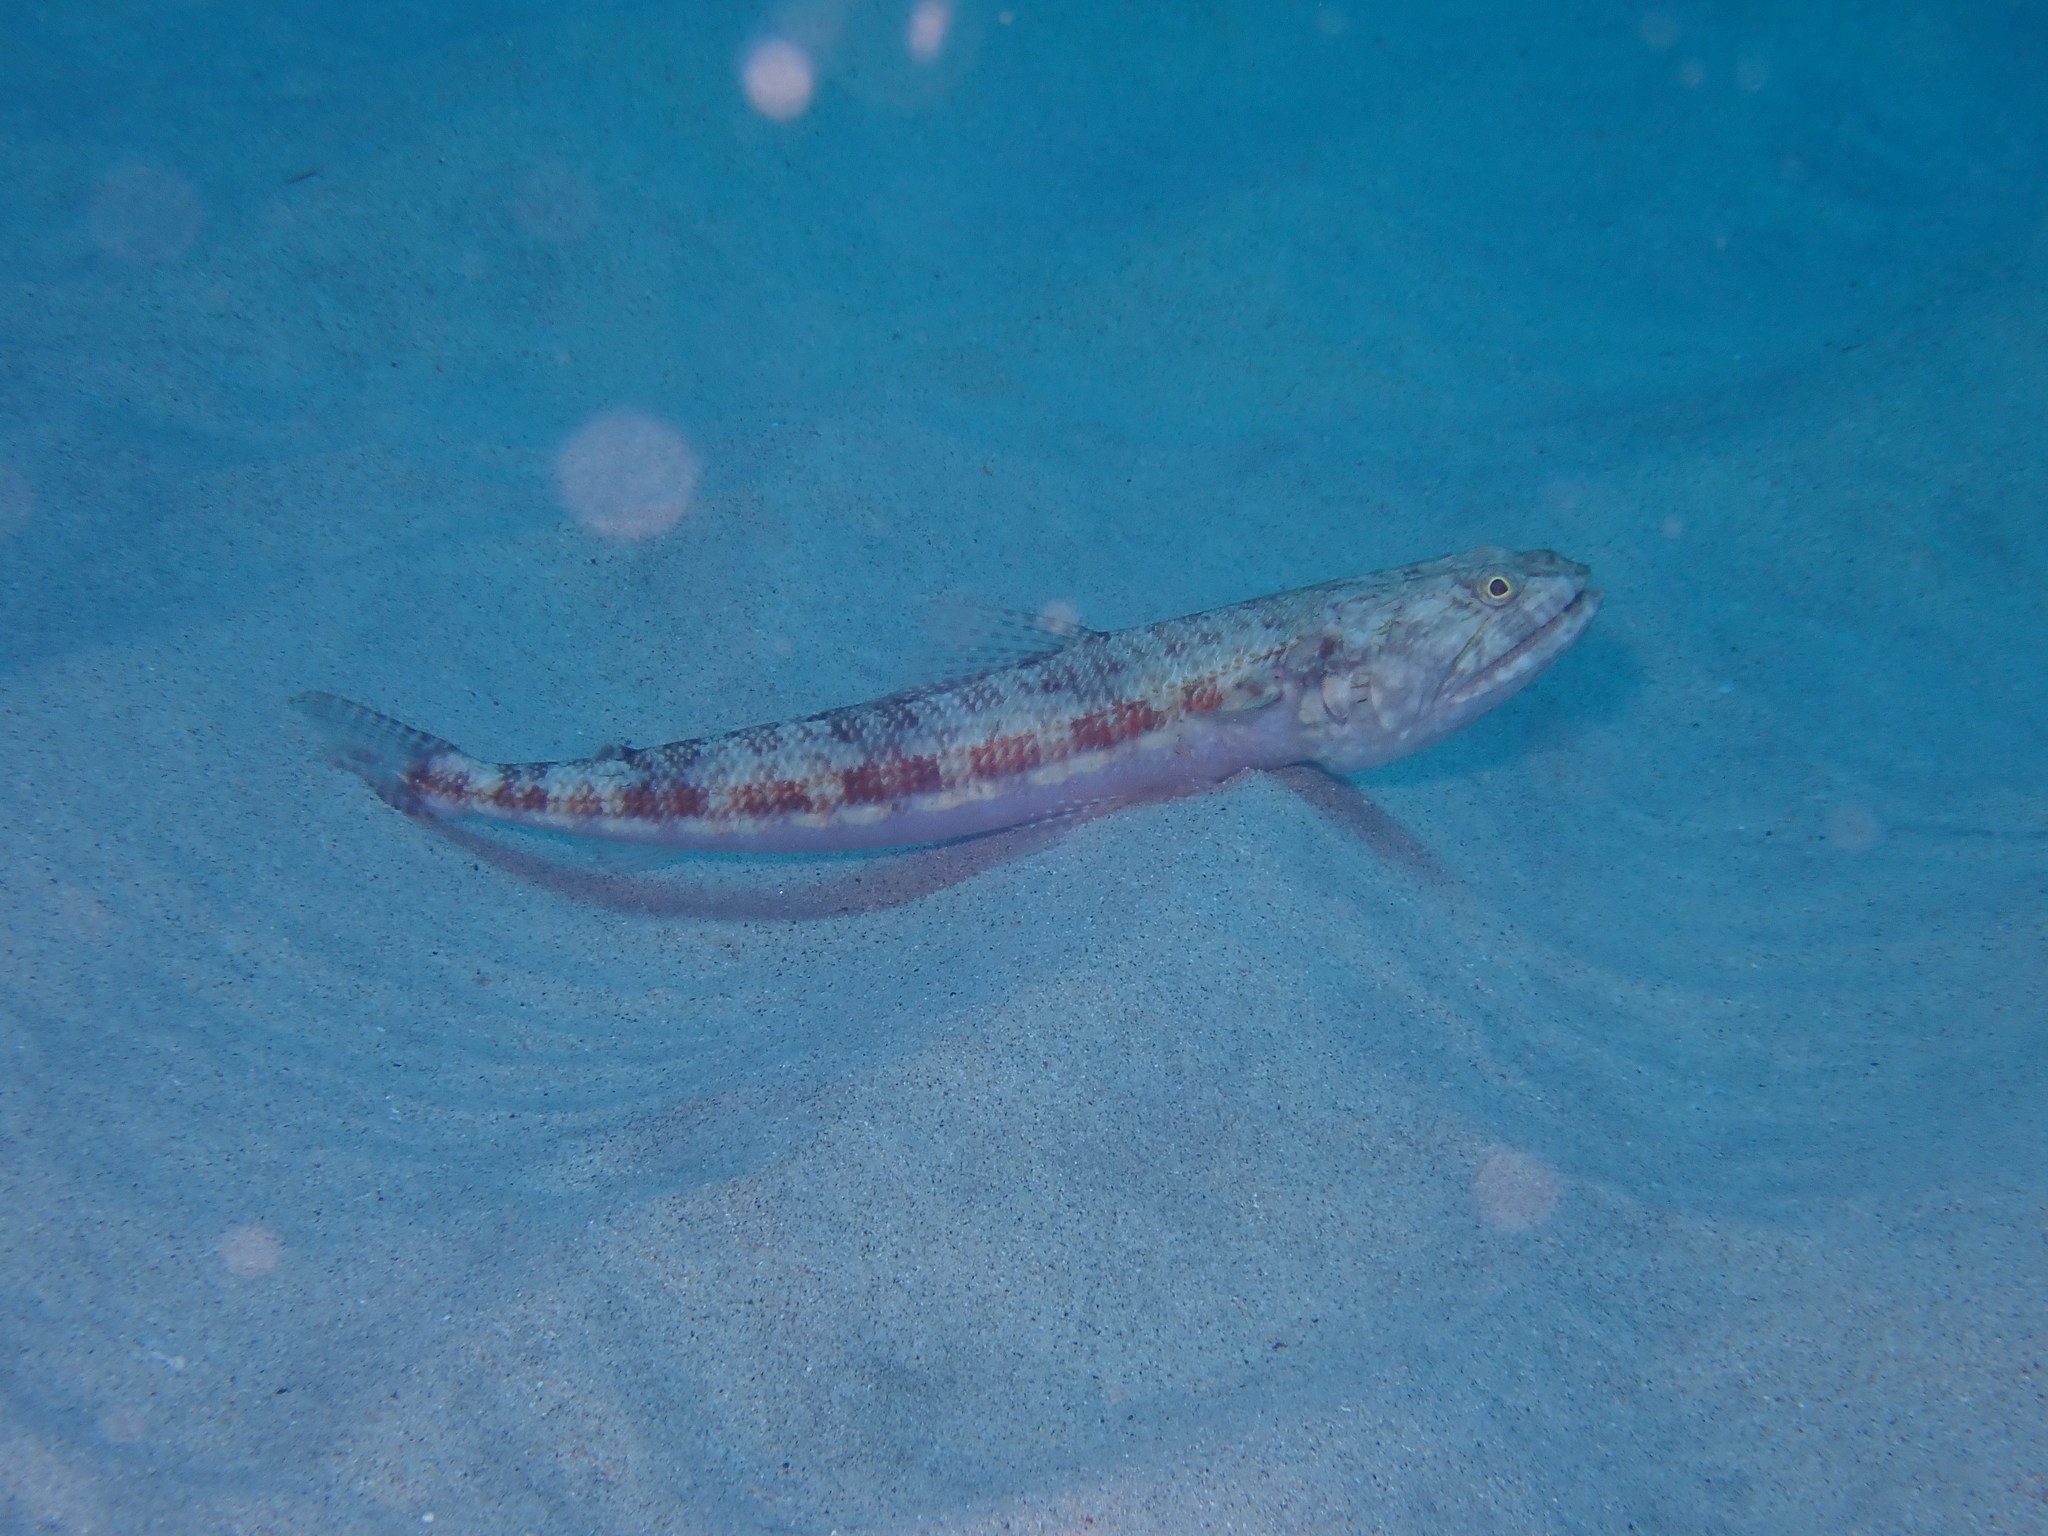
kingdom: Animalia
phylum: Chordata
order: Aulopiformes
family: Synodontidae
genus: Synodus
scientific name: Synodus variegatus
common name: Variegated lizardfish
